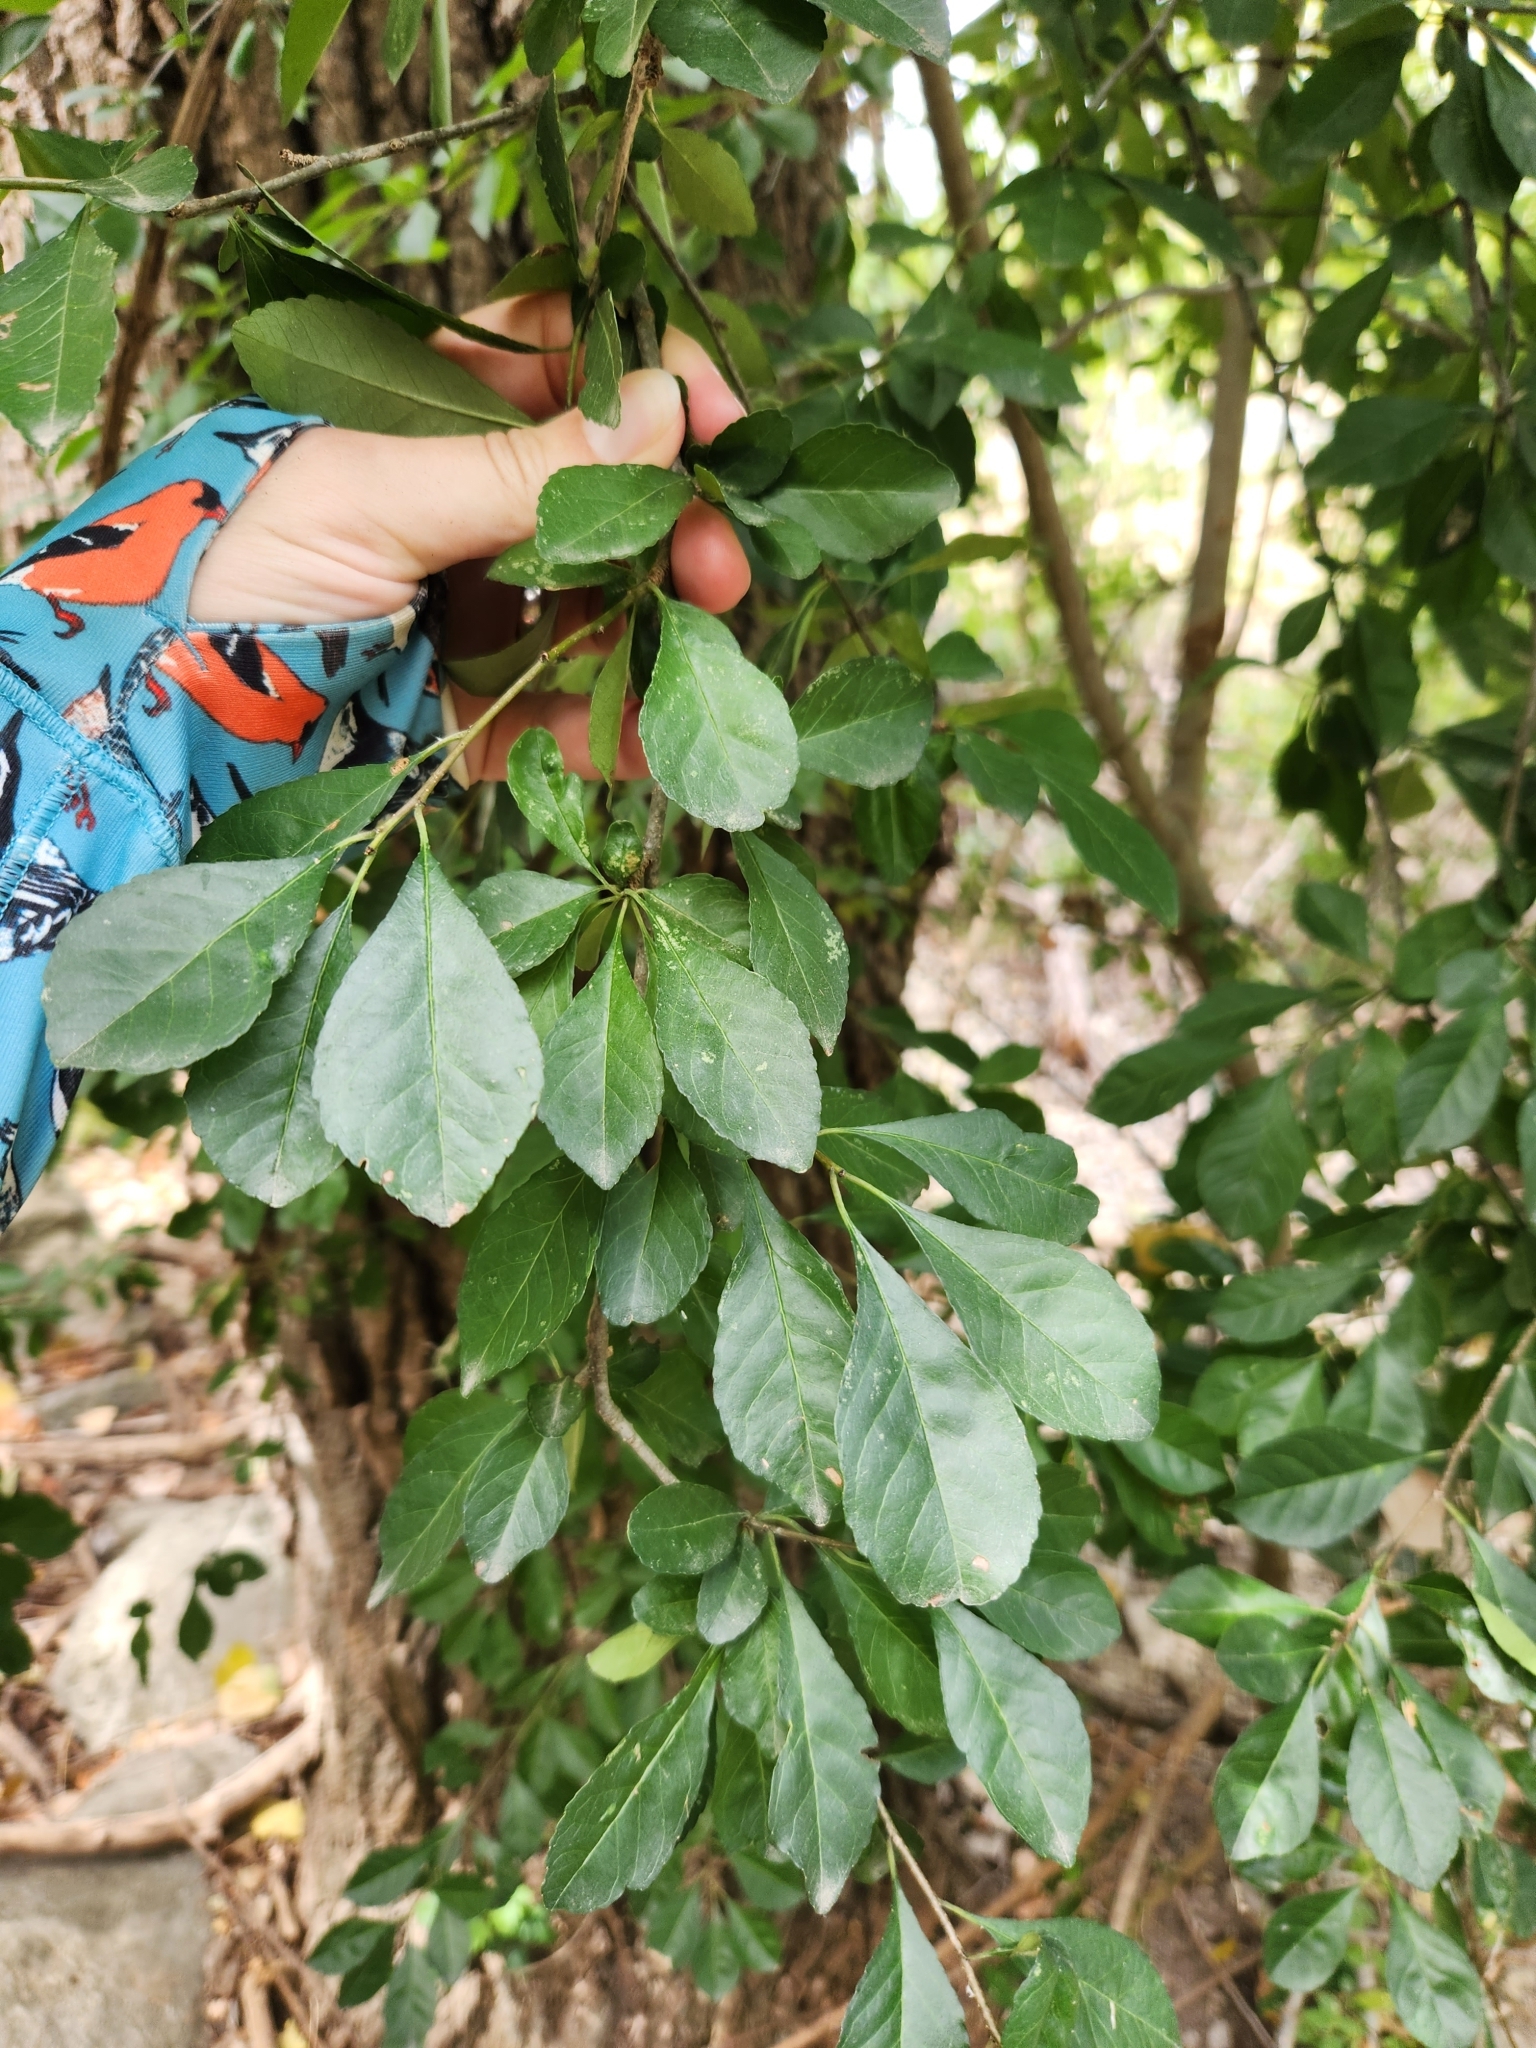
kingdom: Plantae
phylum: Tracheophyta
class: Magnoliopsida
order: Aquifoliales
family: Aquifoliaceae
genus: Ilex
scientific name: Ilex decidua
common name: Possum-haw
